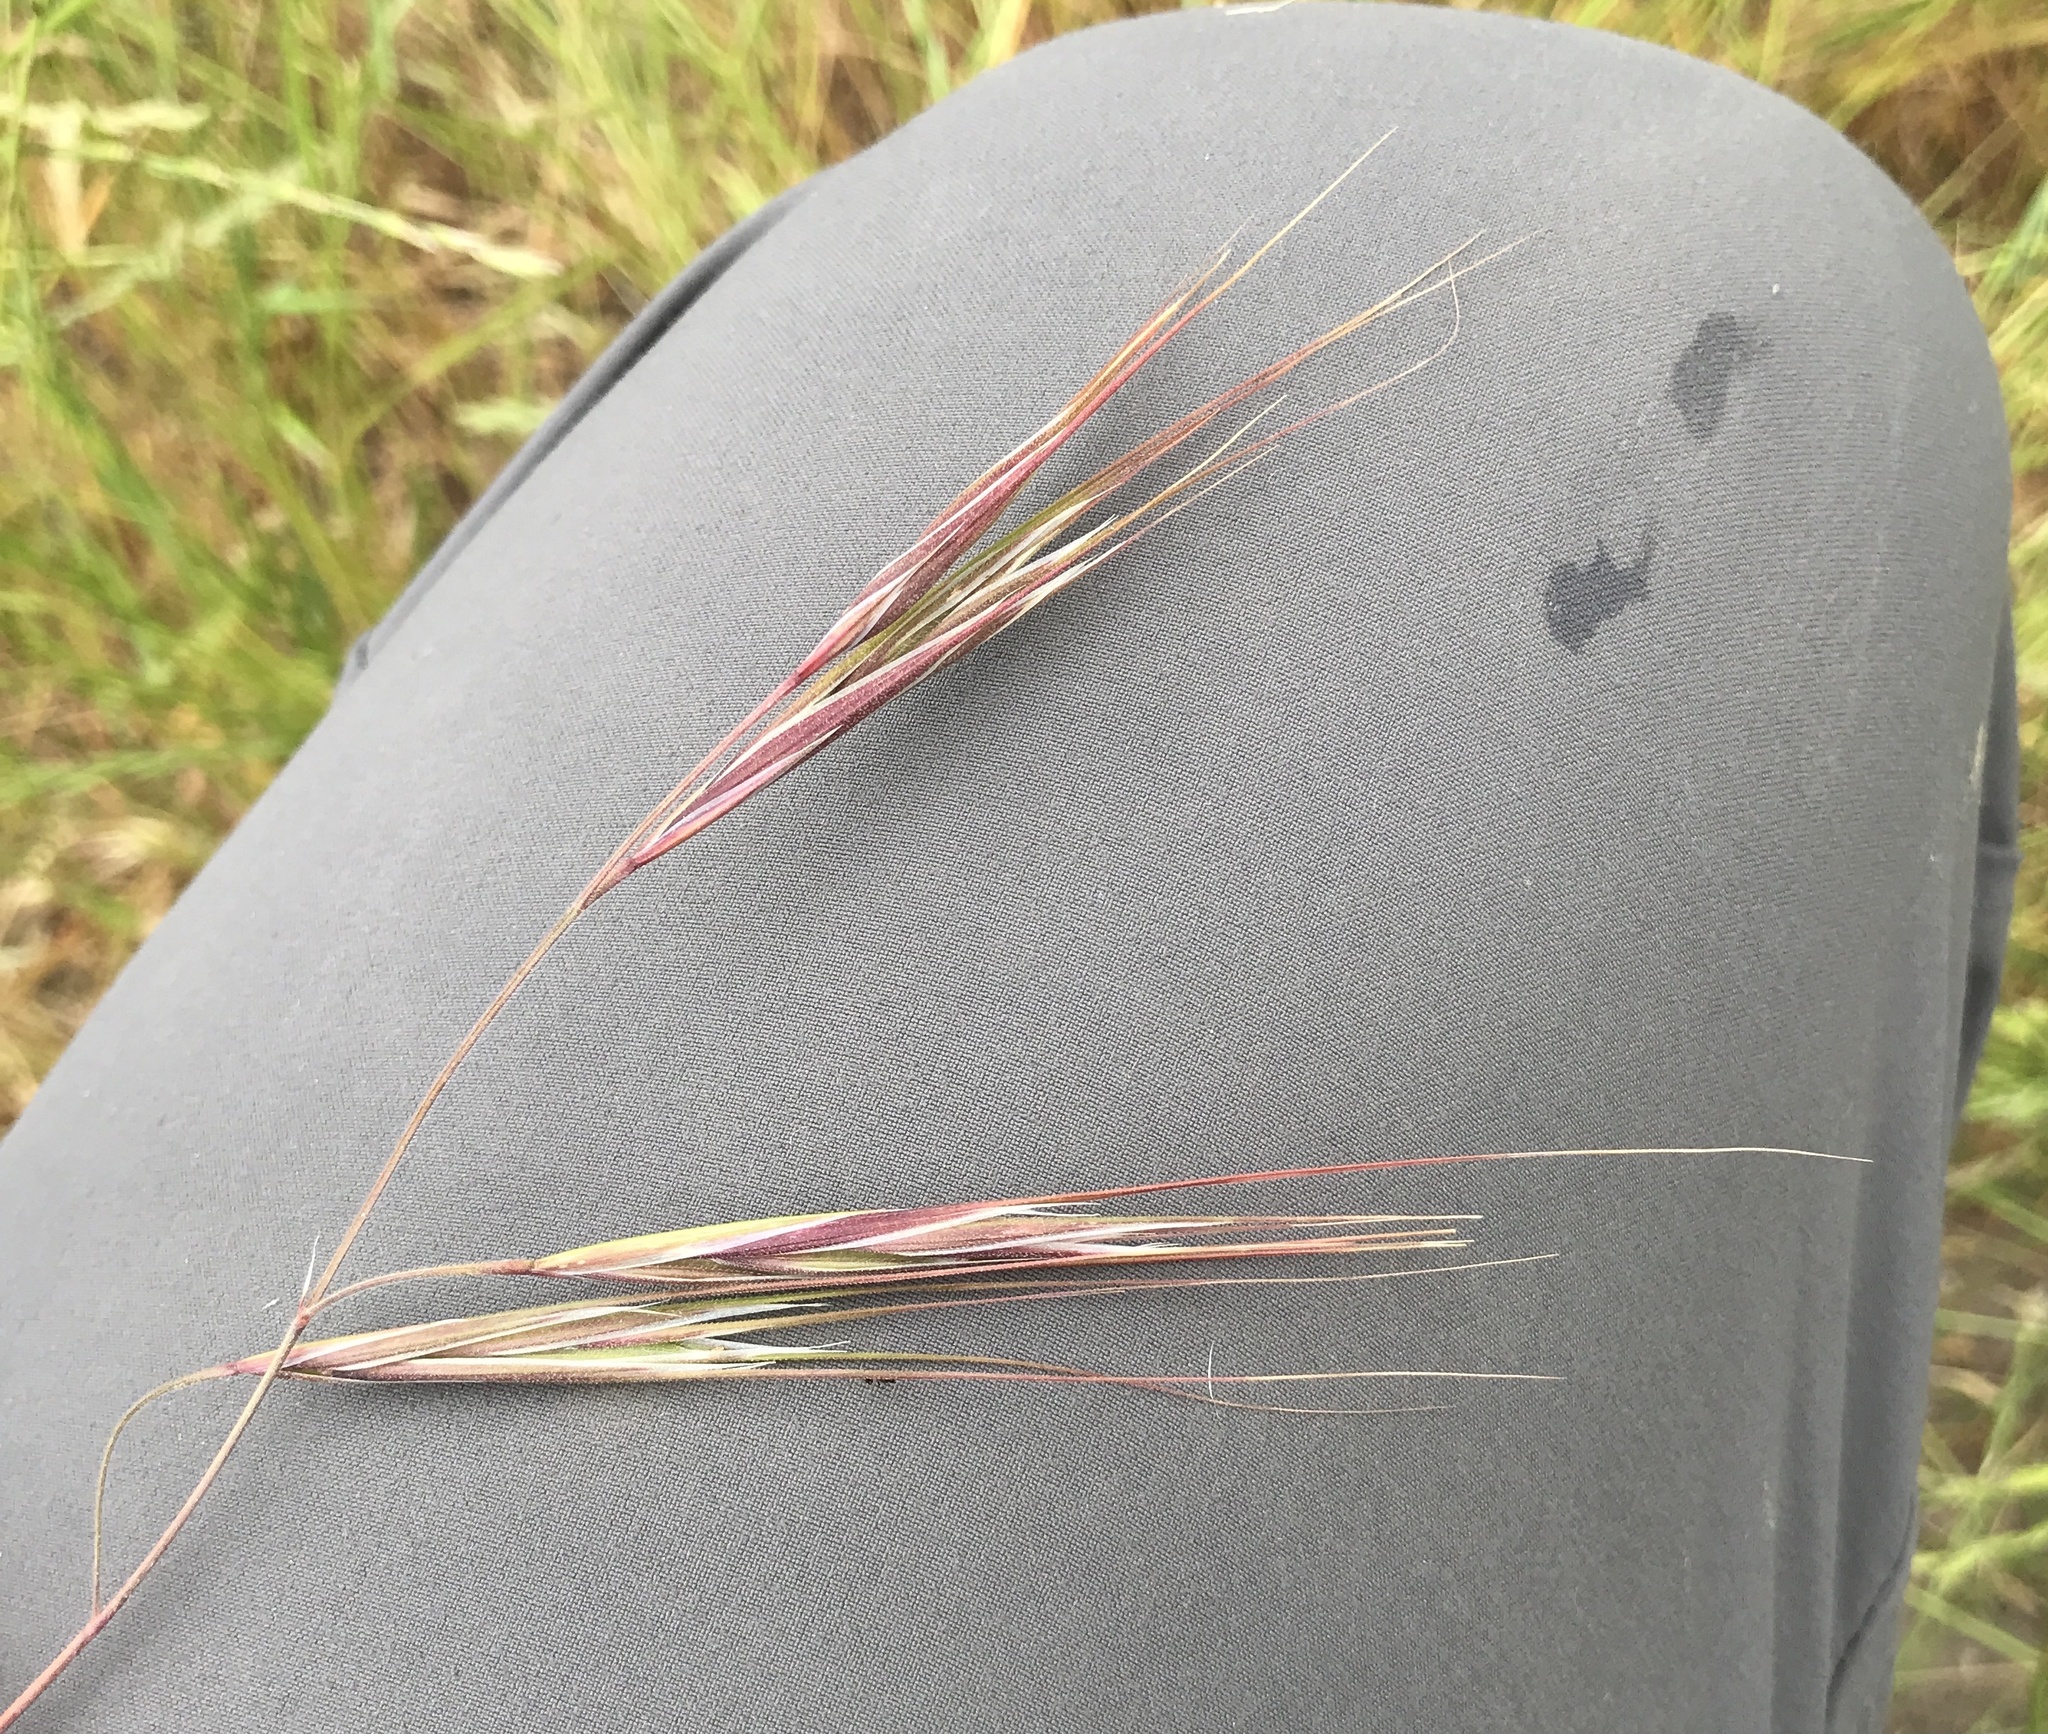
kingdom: Plantae
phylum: Tracheophyta
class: Liliopsida
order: Poales
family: Poaceae
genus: Bromus
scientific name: Bromus diandrus
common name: Ripgut brome
